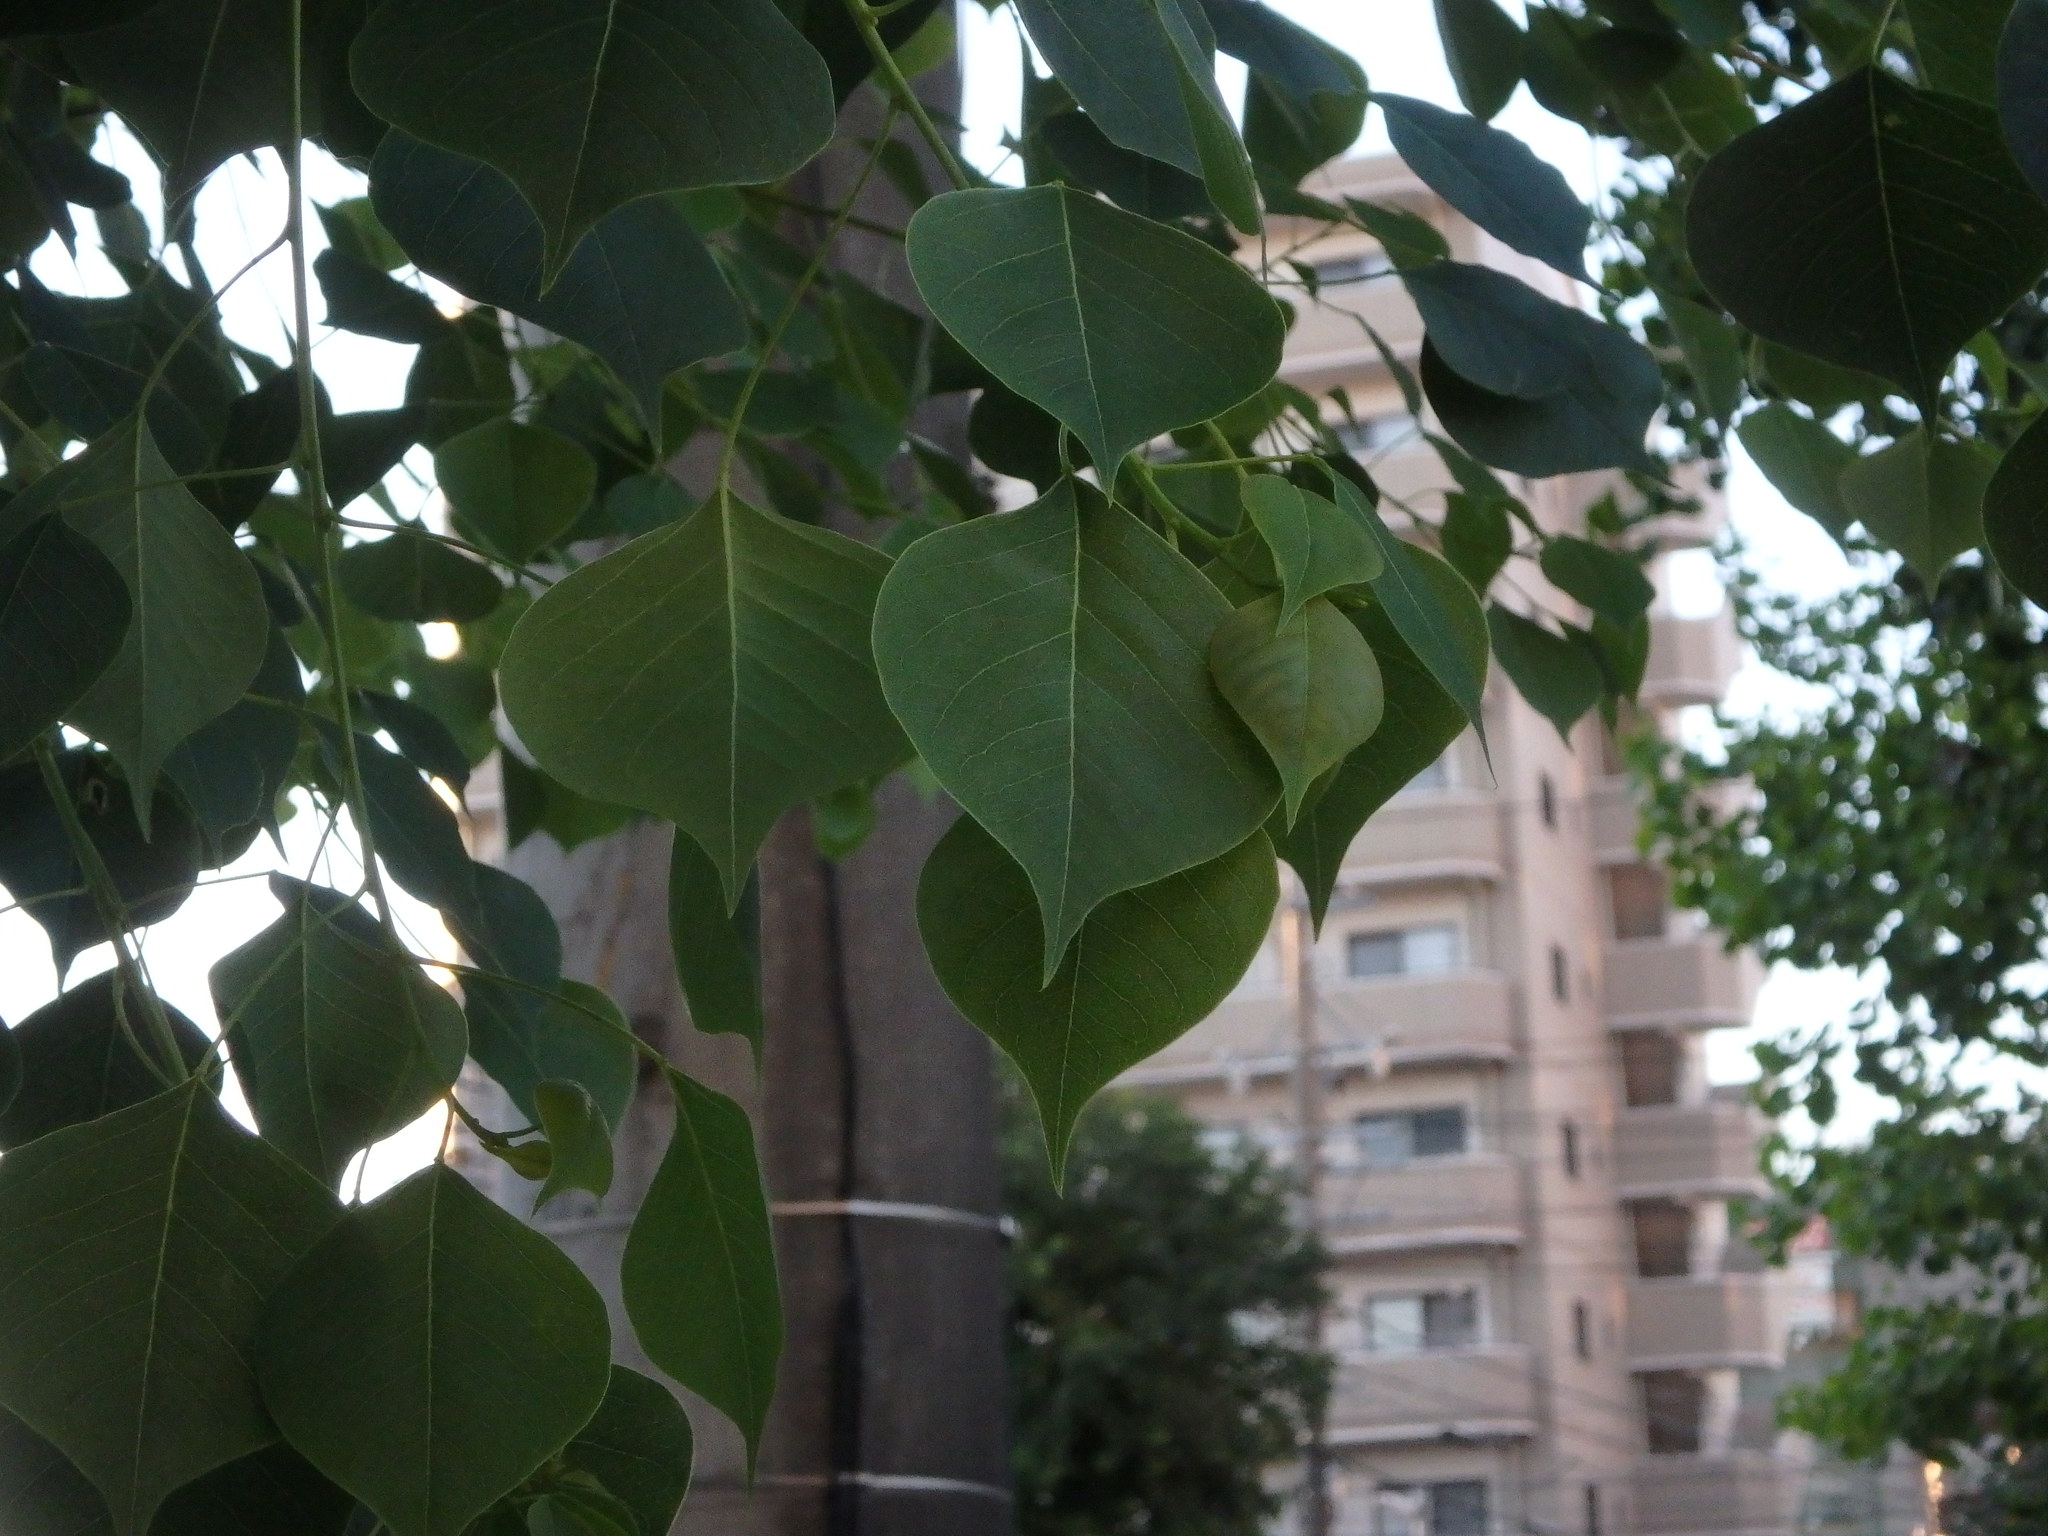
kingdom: Plantae
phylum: Tracheophyta
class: Magnoliopsida
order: Malpighiales
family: Euphorbiaceae
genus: Triadica
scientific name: Triadica sebifera
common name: Chinese tallow
